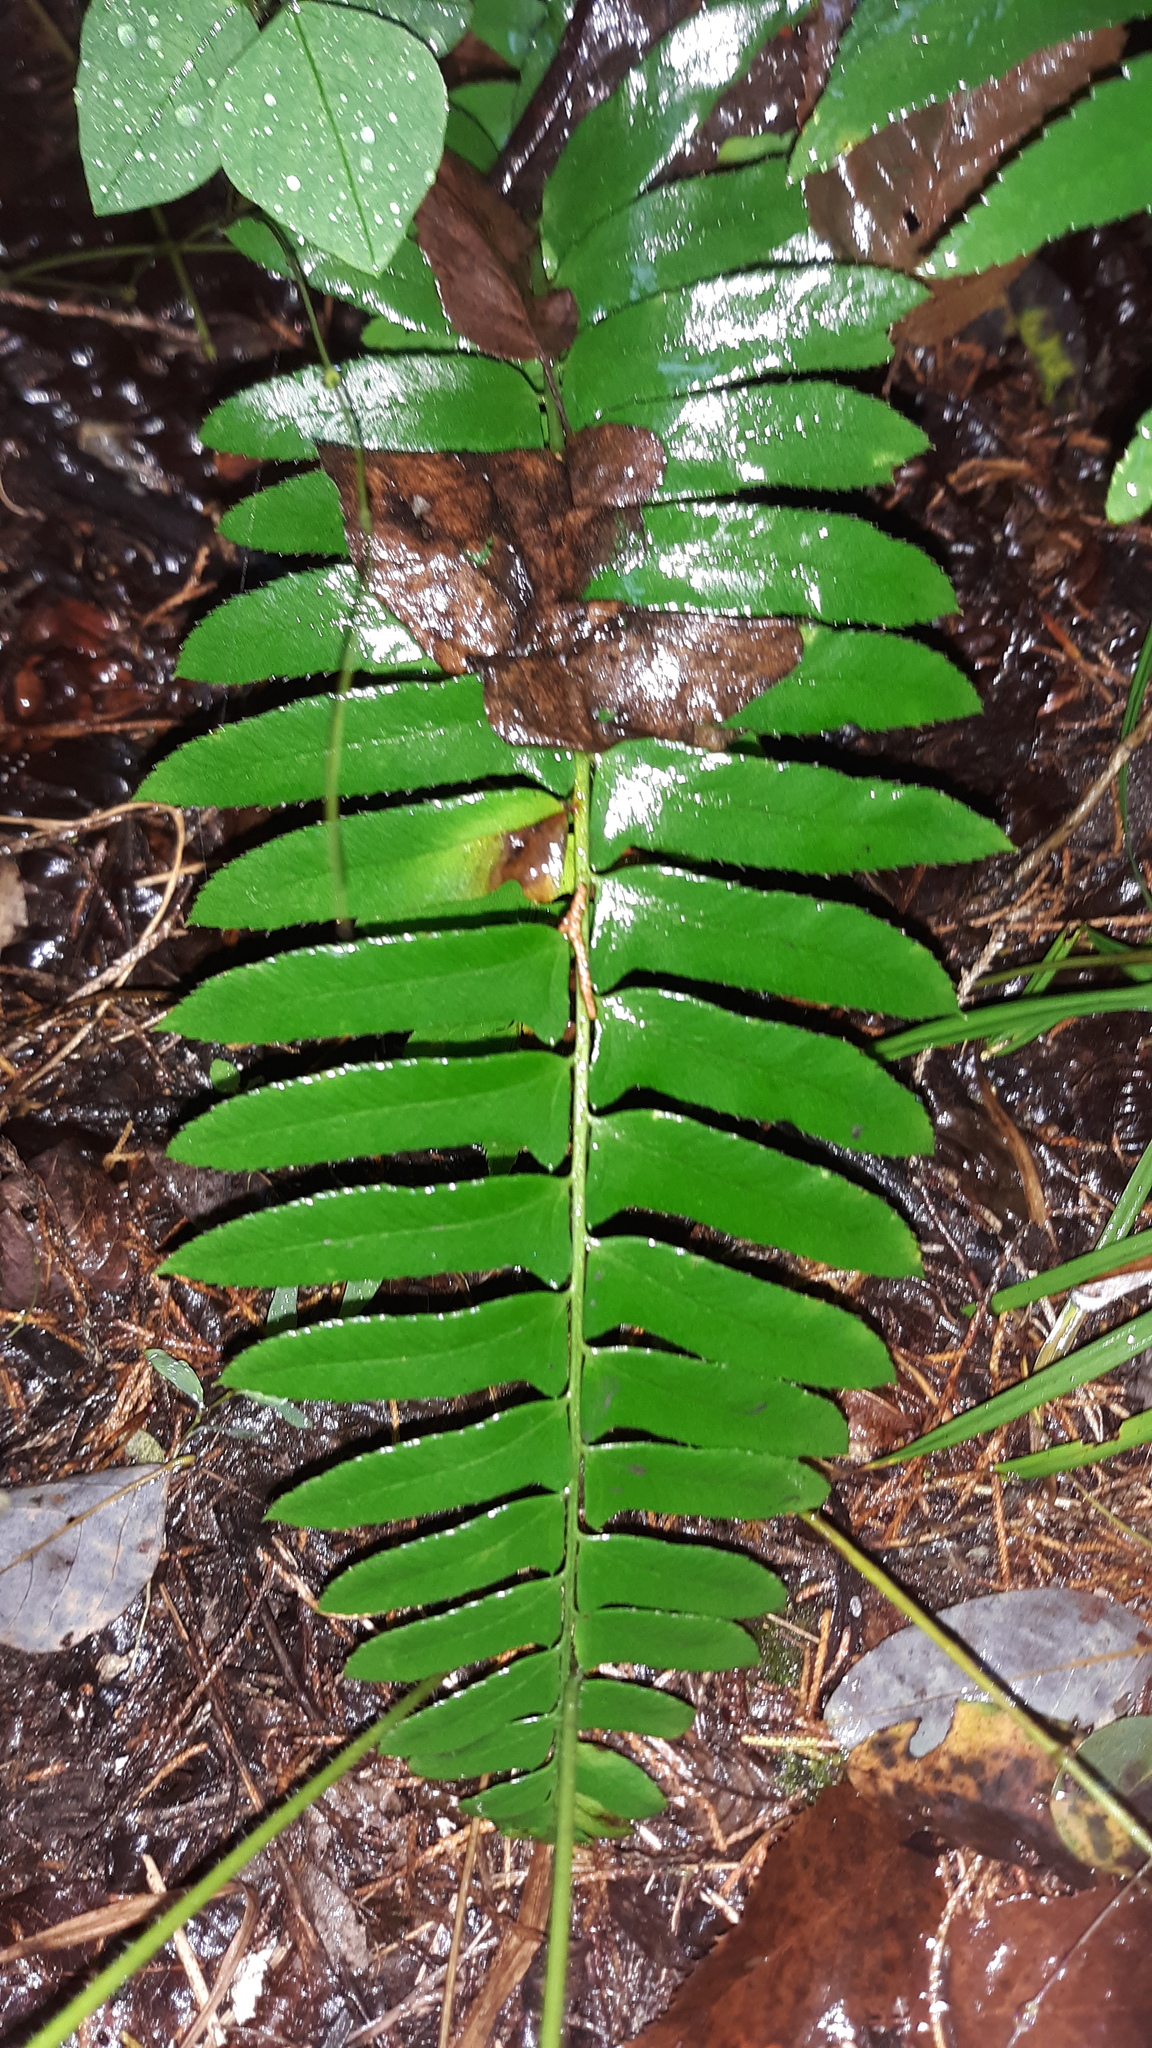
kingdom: Plantae
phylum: Tracheophyta
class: Polypodiopsida
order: Polypodiales
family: Dryopteridaceae
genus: Polystichum
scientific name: Polystichum acrostichoides
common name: Christmas fern
